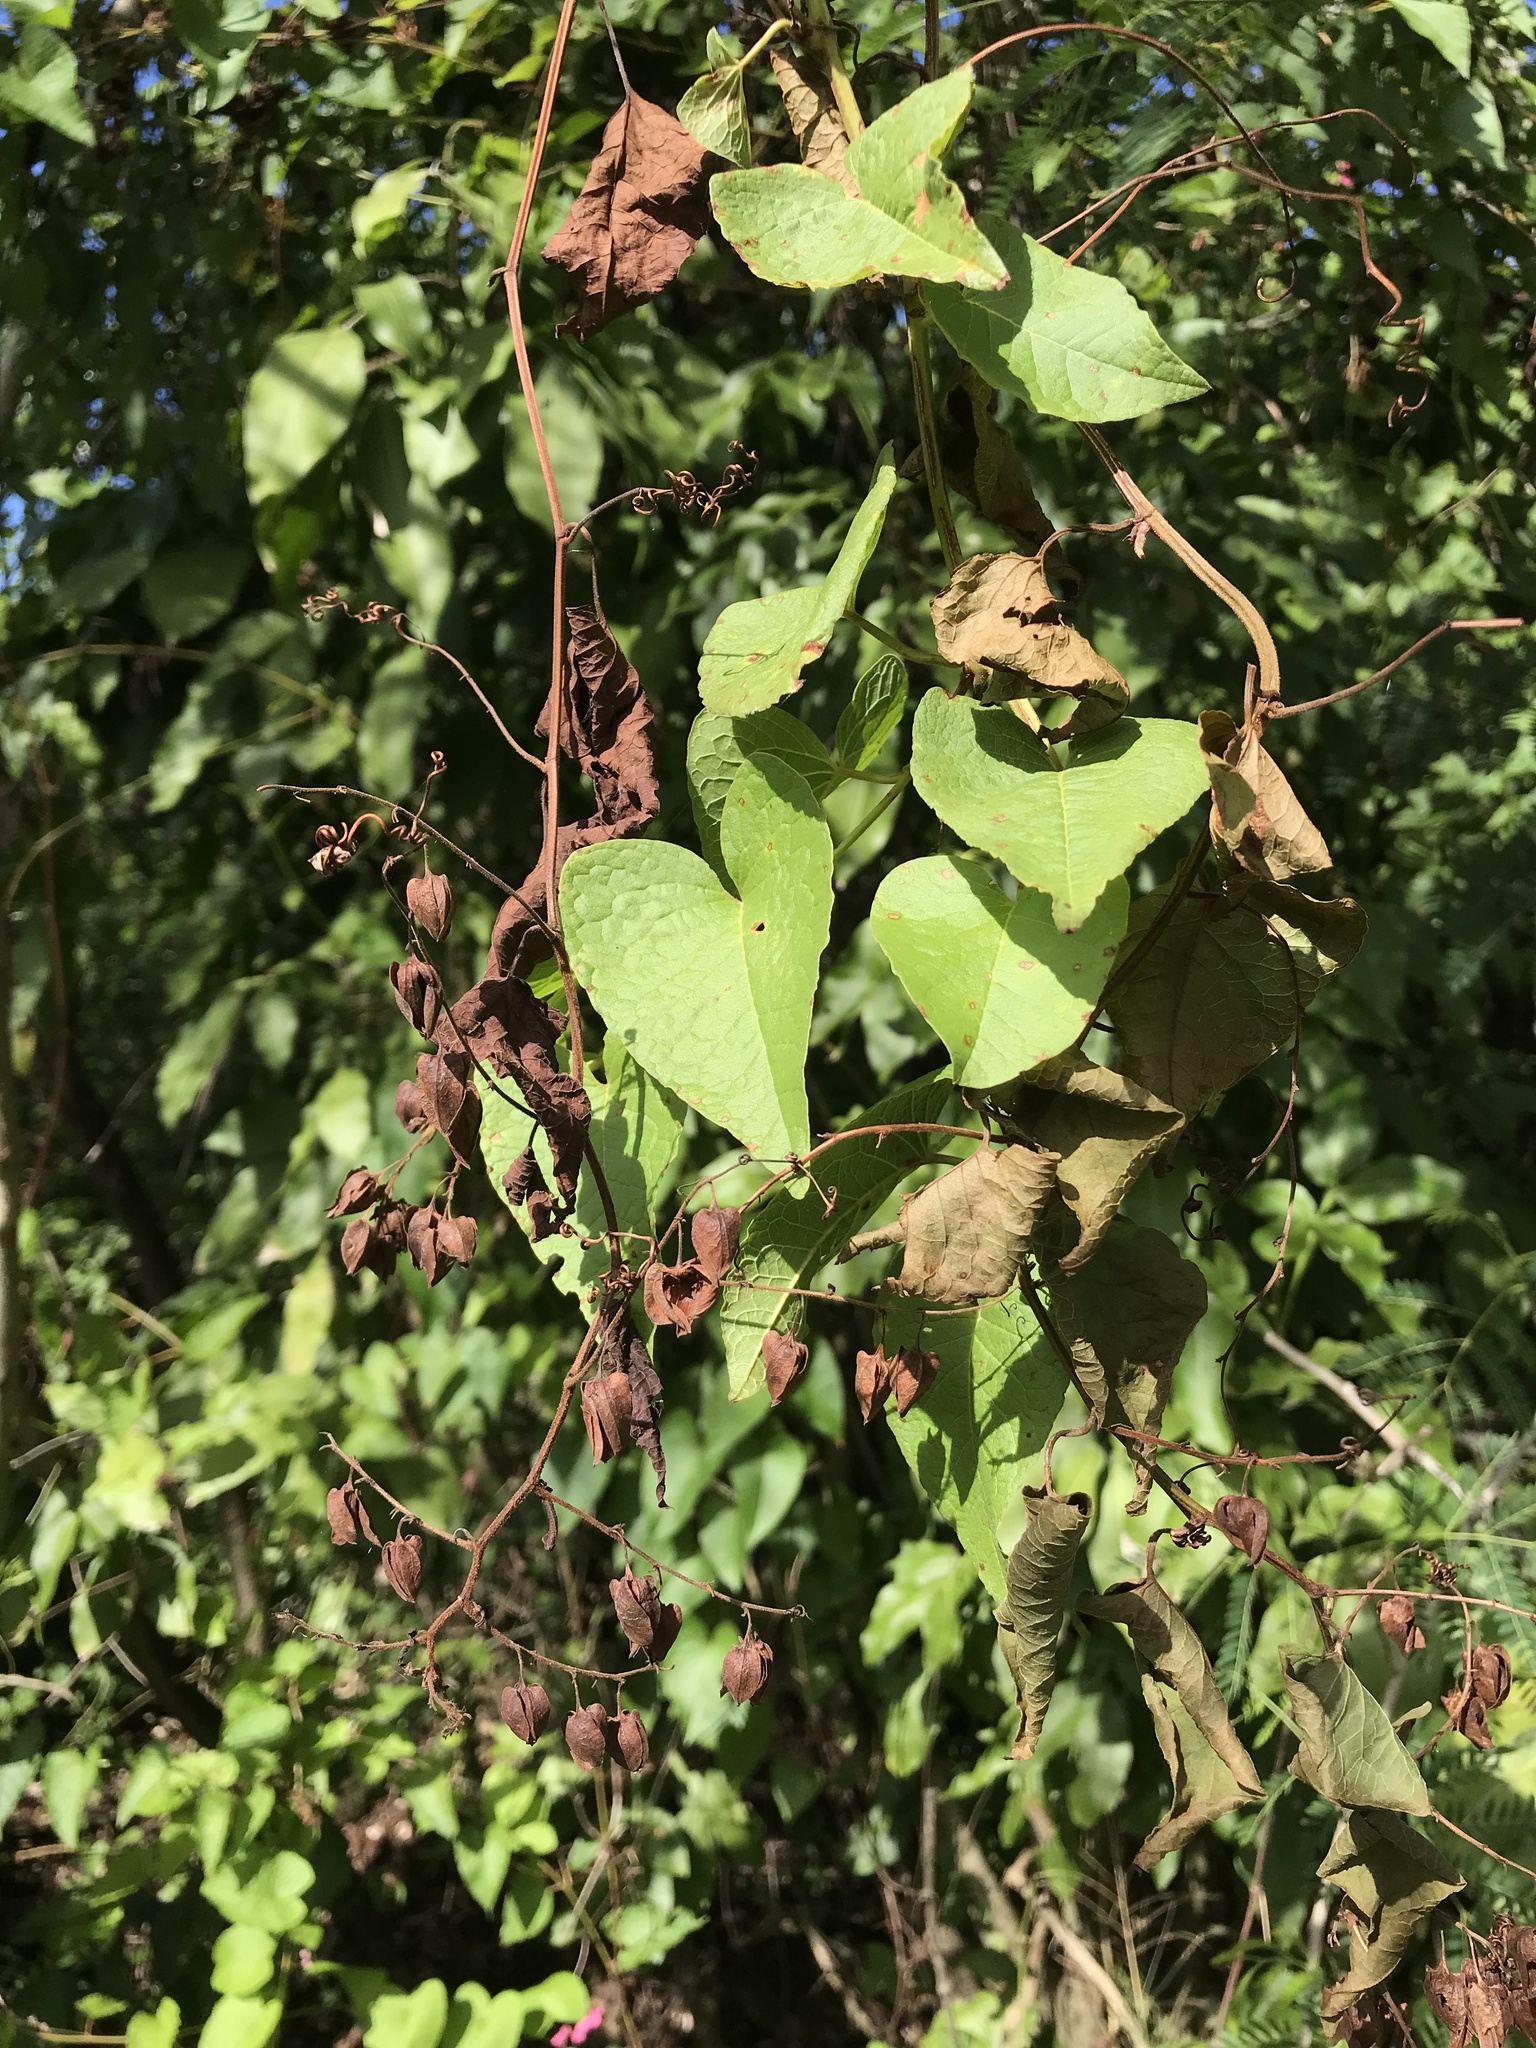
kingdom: Plantae
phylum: Tracheophyta
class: Magnoliopsida
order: Caryophyllales
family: Polygonaceae
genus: Antigonon
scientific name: Antigonon leptopus
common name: Coral vine
